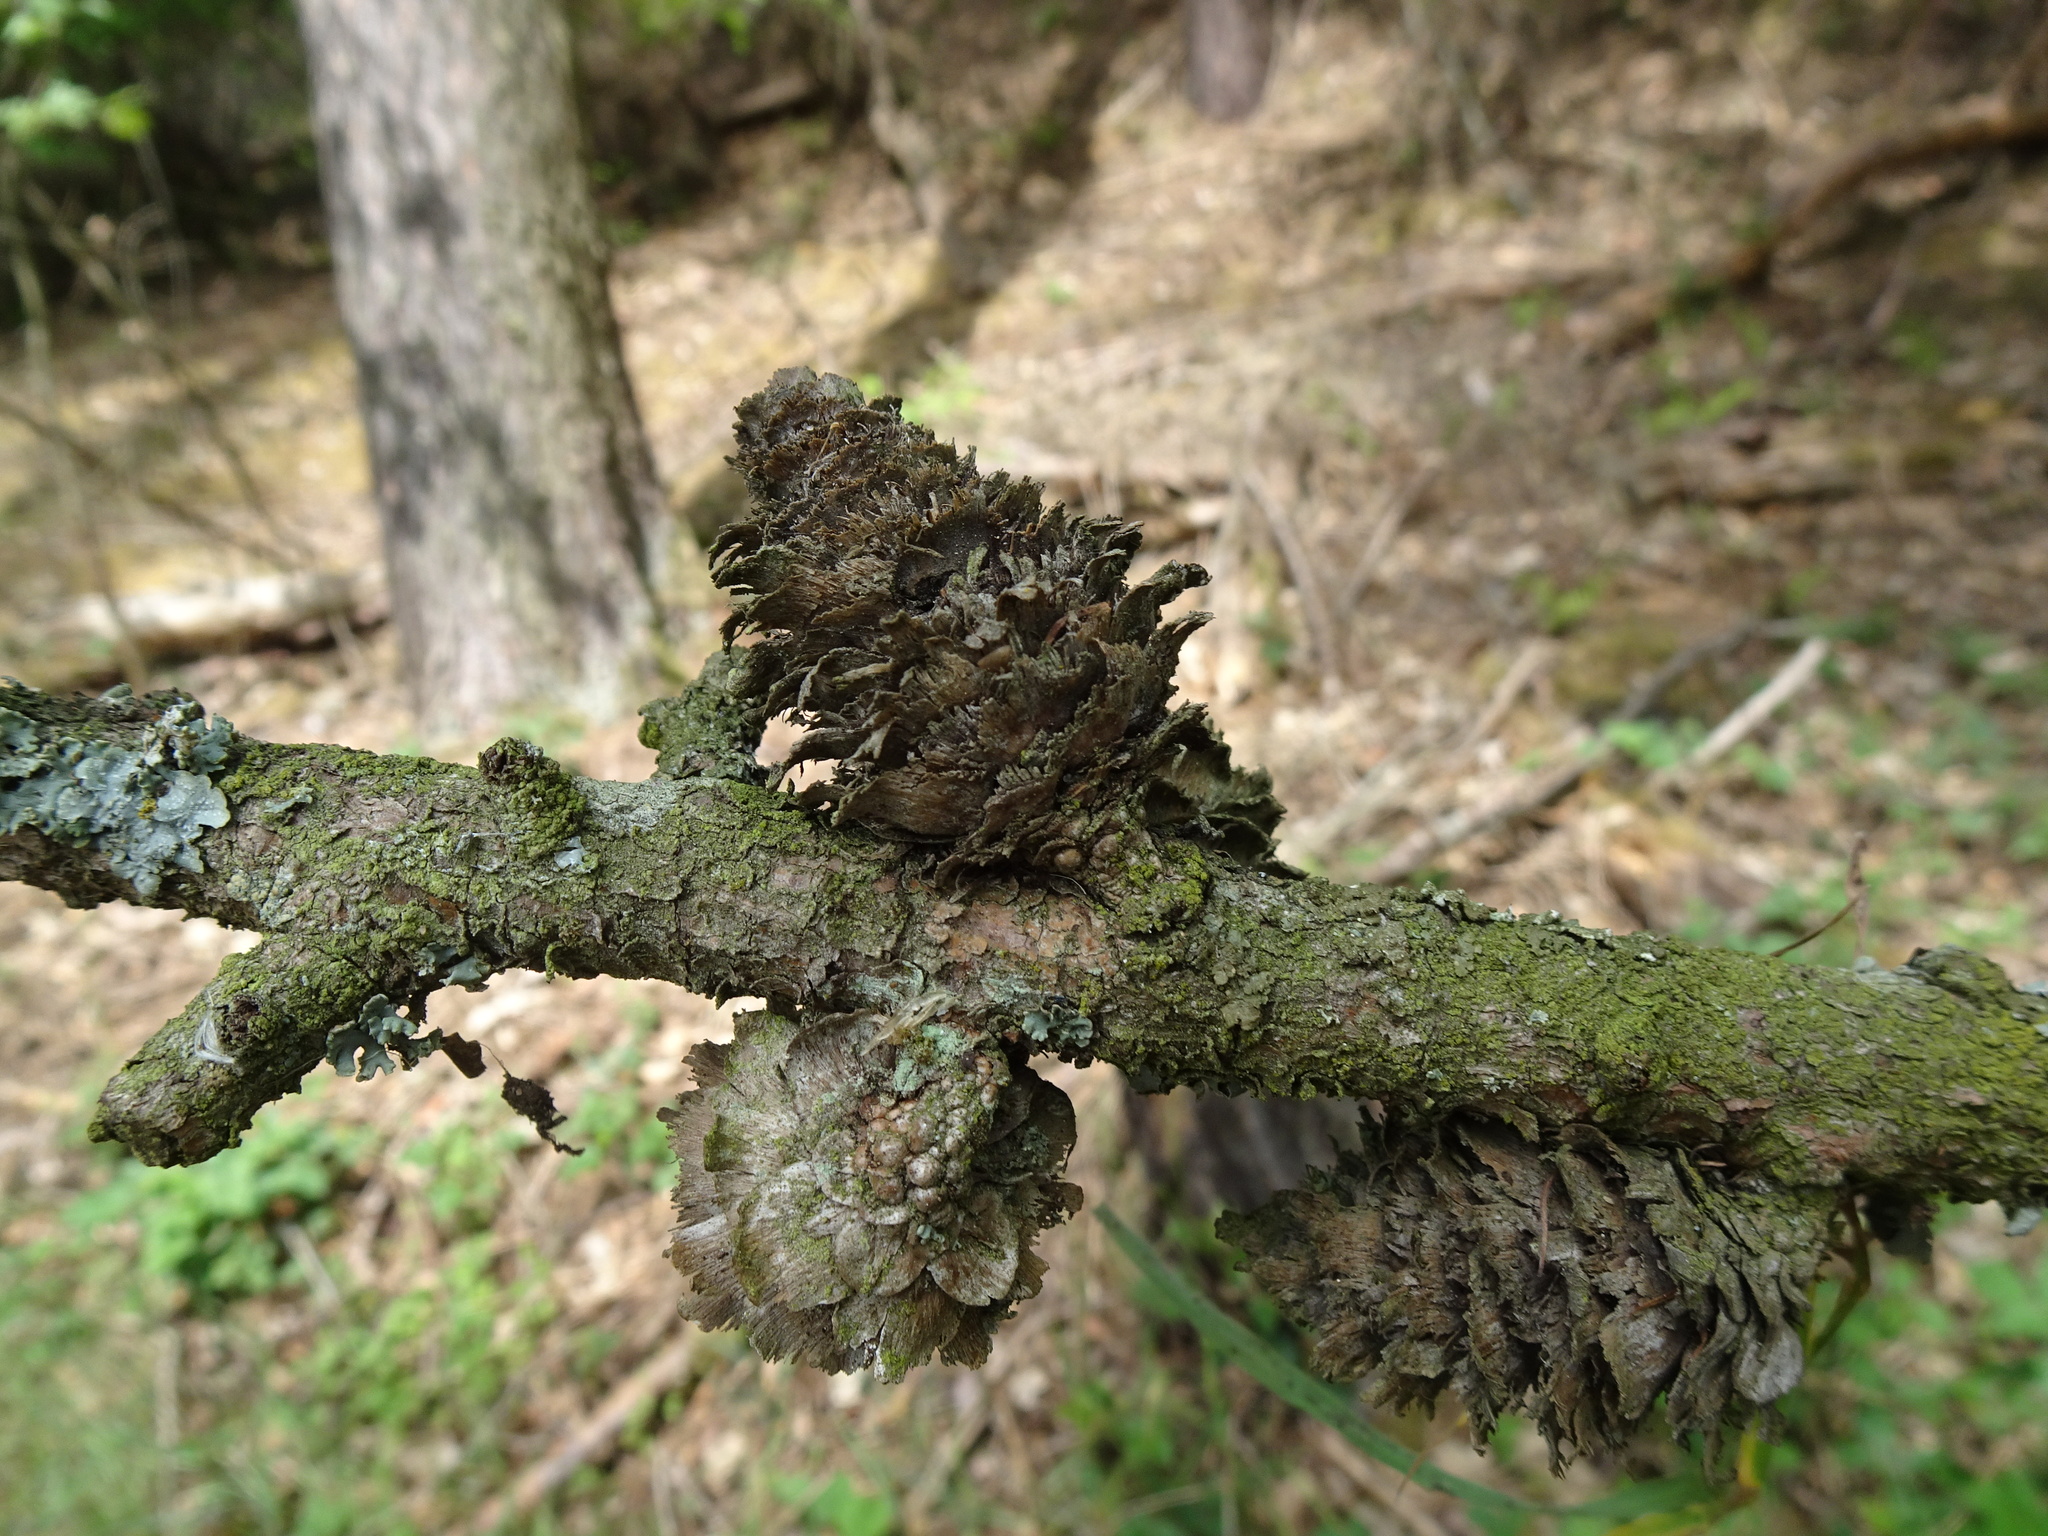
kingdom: Plantae
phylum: Tracheophyta
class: Pinopsida
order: Pinales
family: Pinaceae
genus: Larix
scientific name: Larix decidua
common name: European larch
